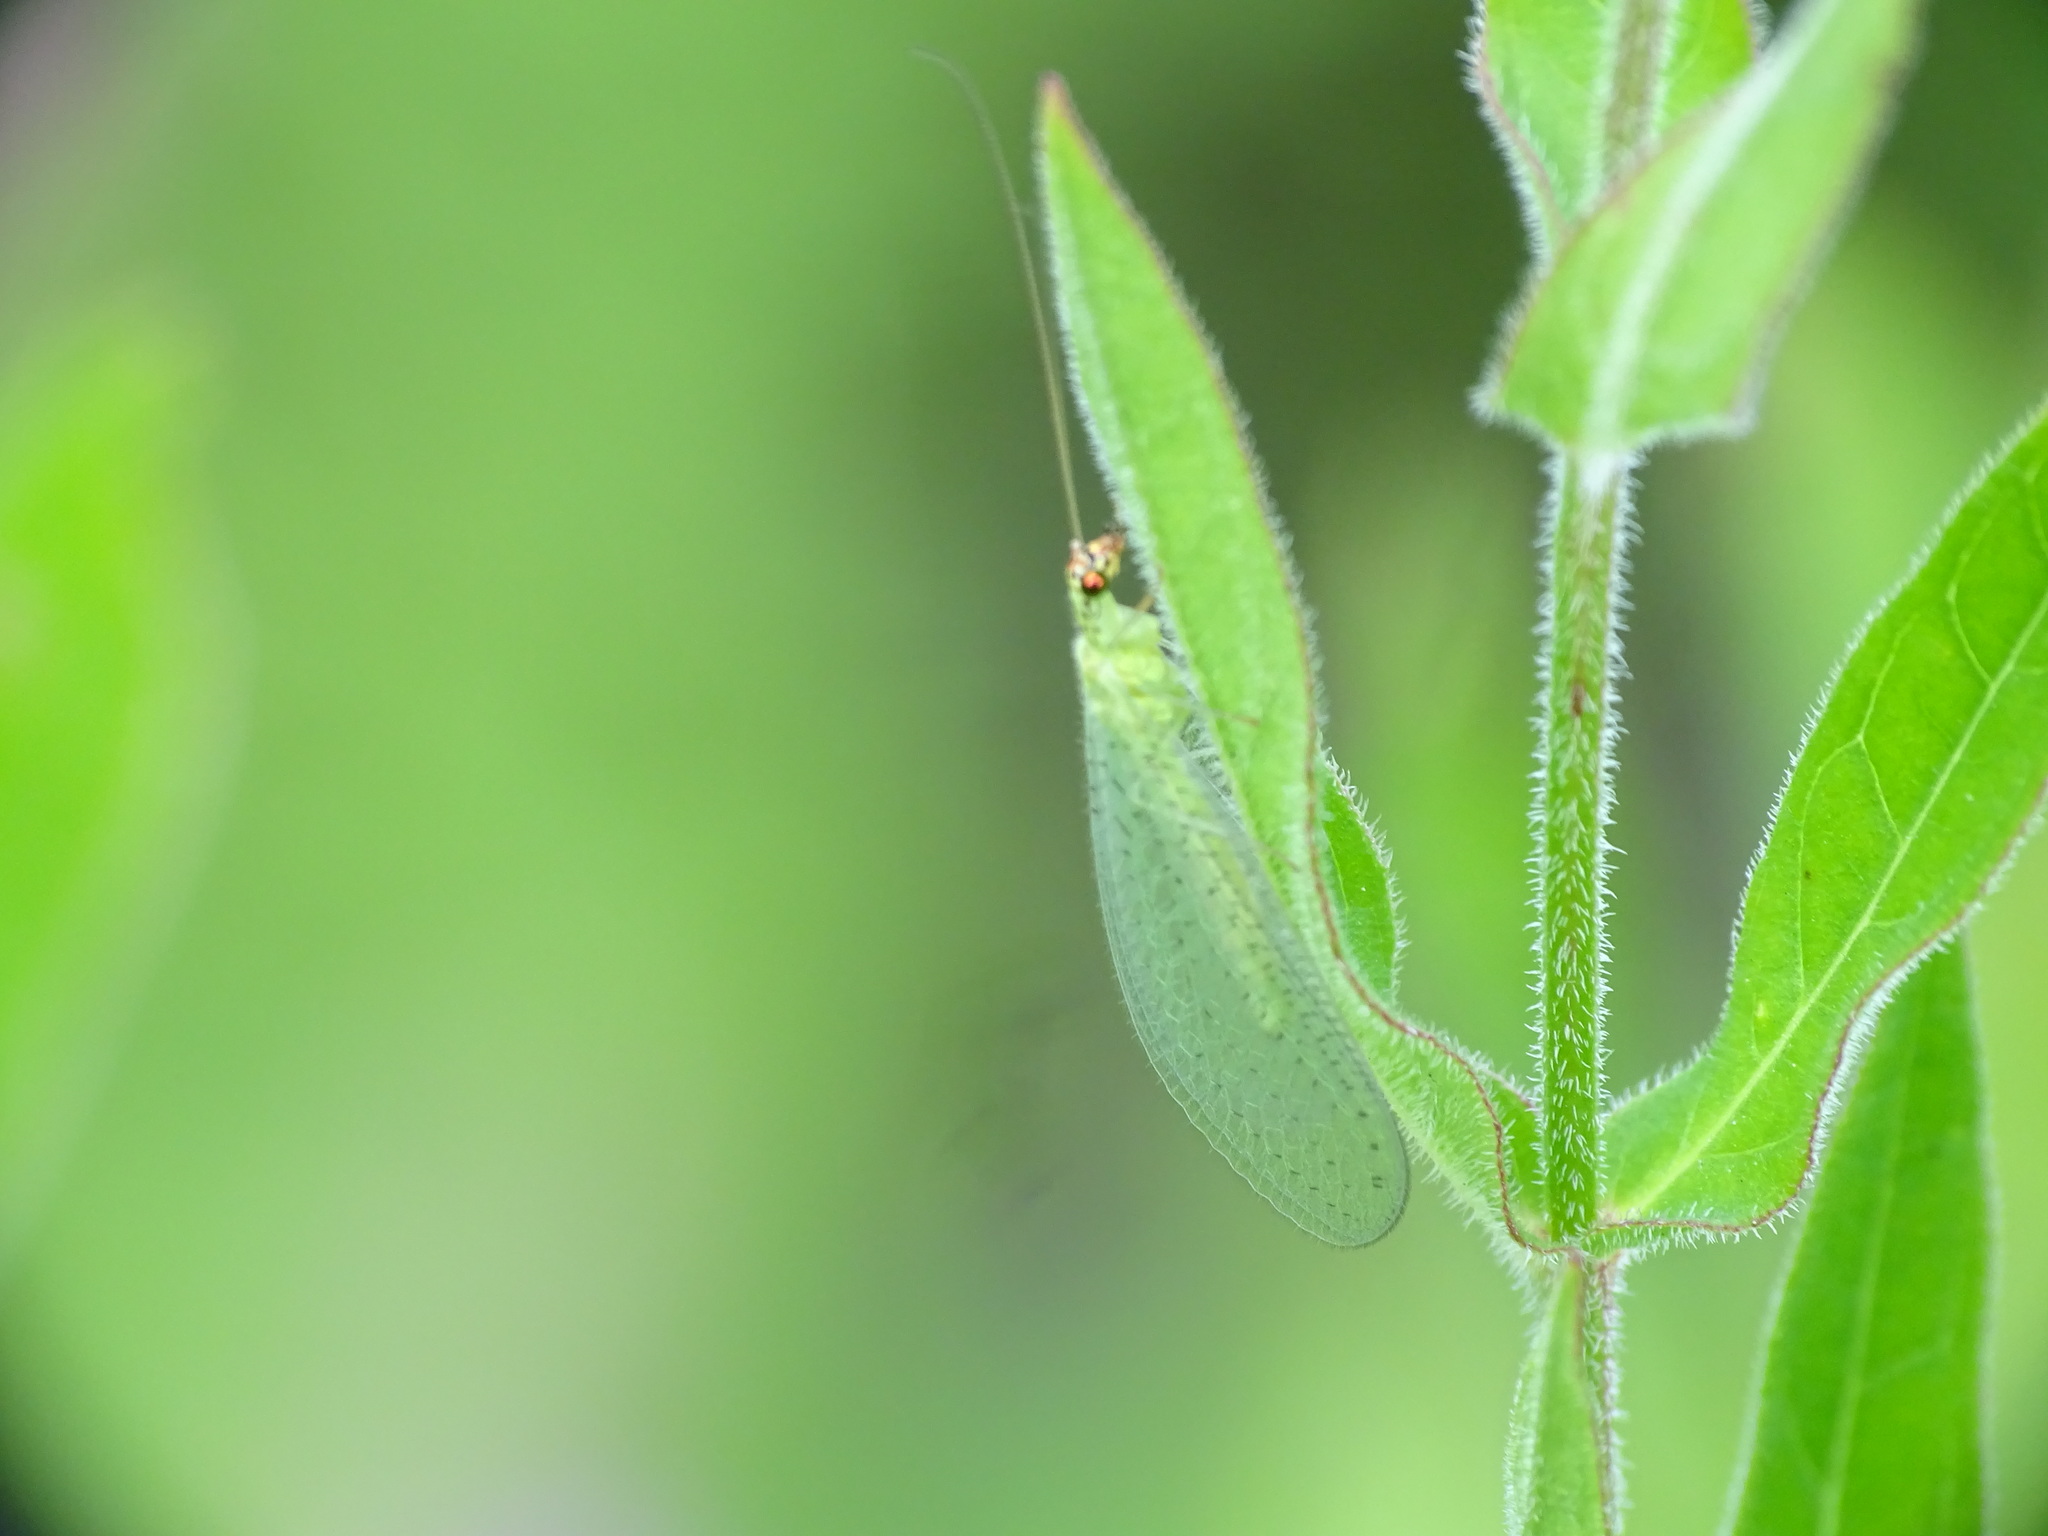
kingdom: Animalia
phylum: Arthropoda
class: Insecta
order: Neuroptera
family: Chrysopidae
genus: Chrysopa
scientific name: Chrysopa oculata
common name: Golden-eyed lacewing
